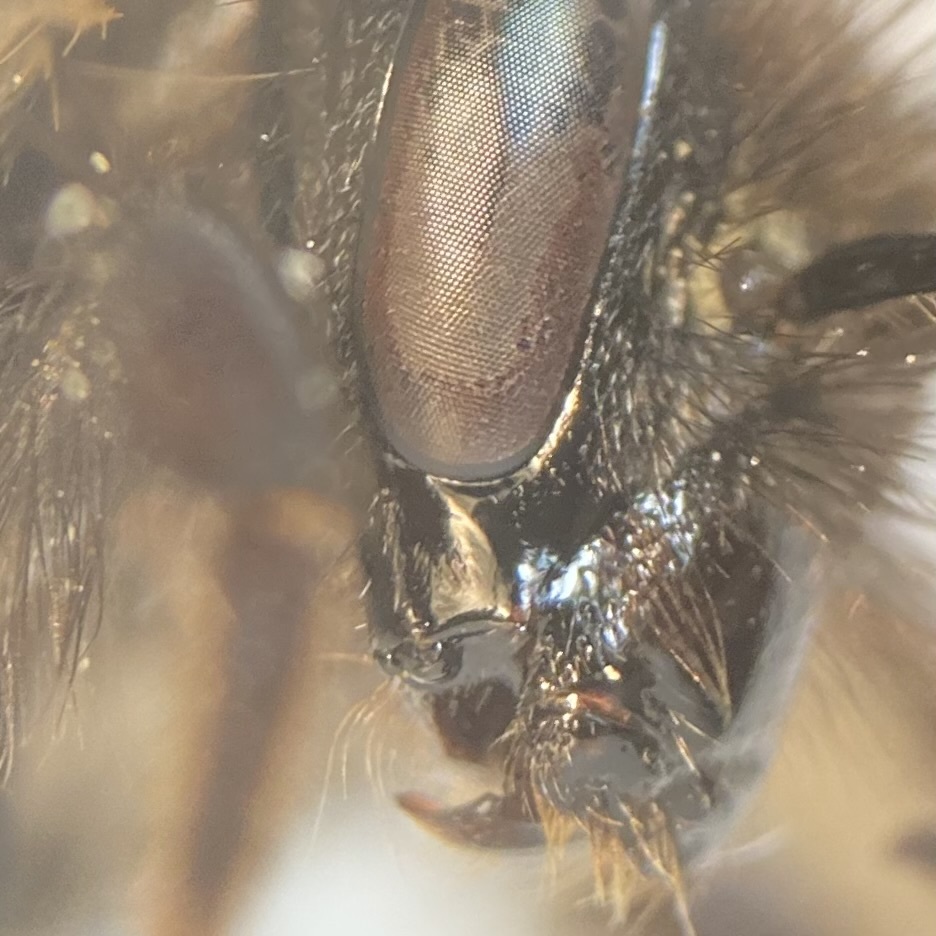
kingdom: Animalia
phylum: Arthropoda
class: Insecta
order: Hymenoptera
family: Apidae
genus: Bombus
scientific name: Bombus sandersoni
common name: Sanderson bumble bee
